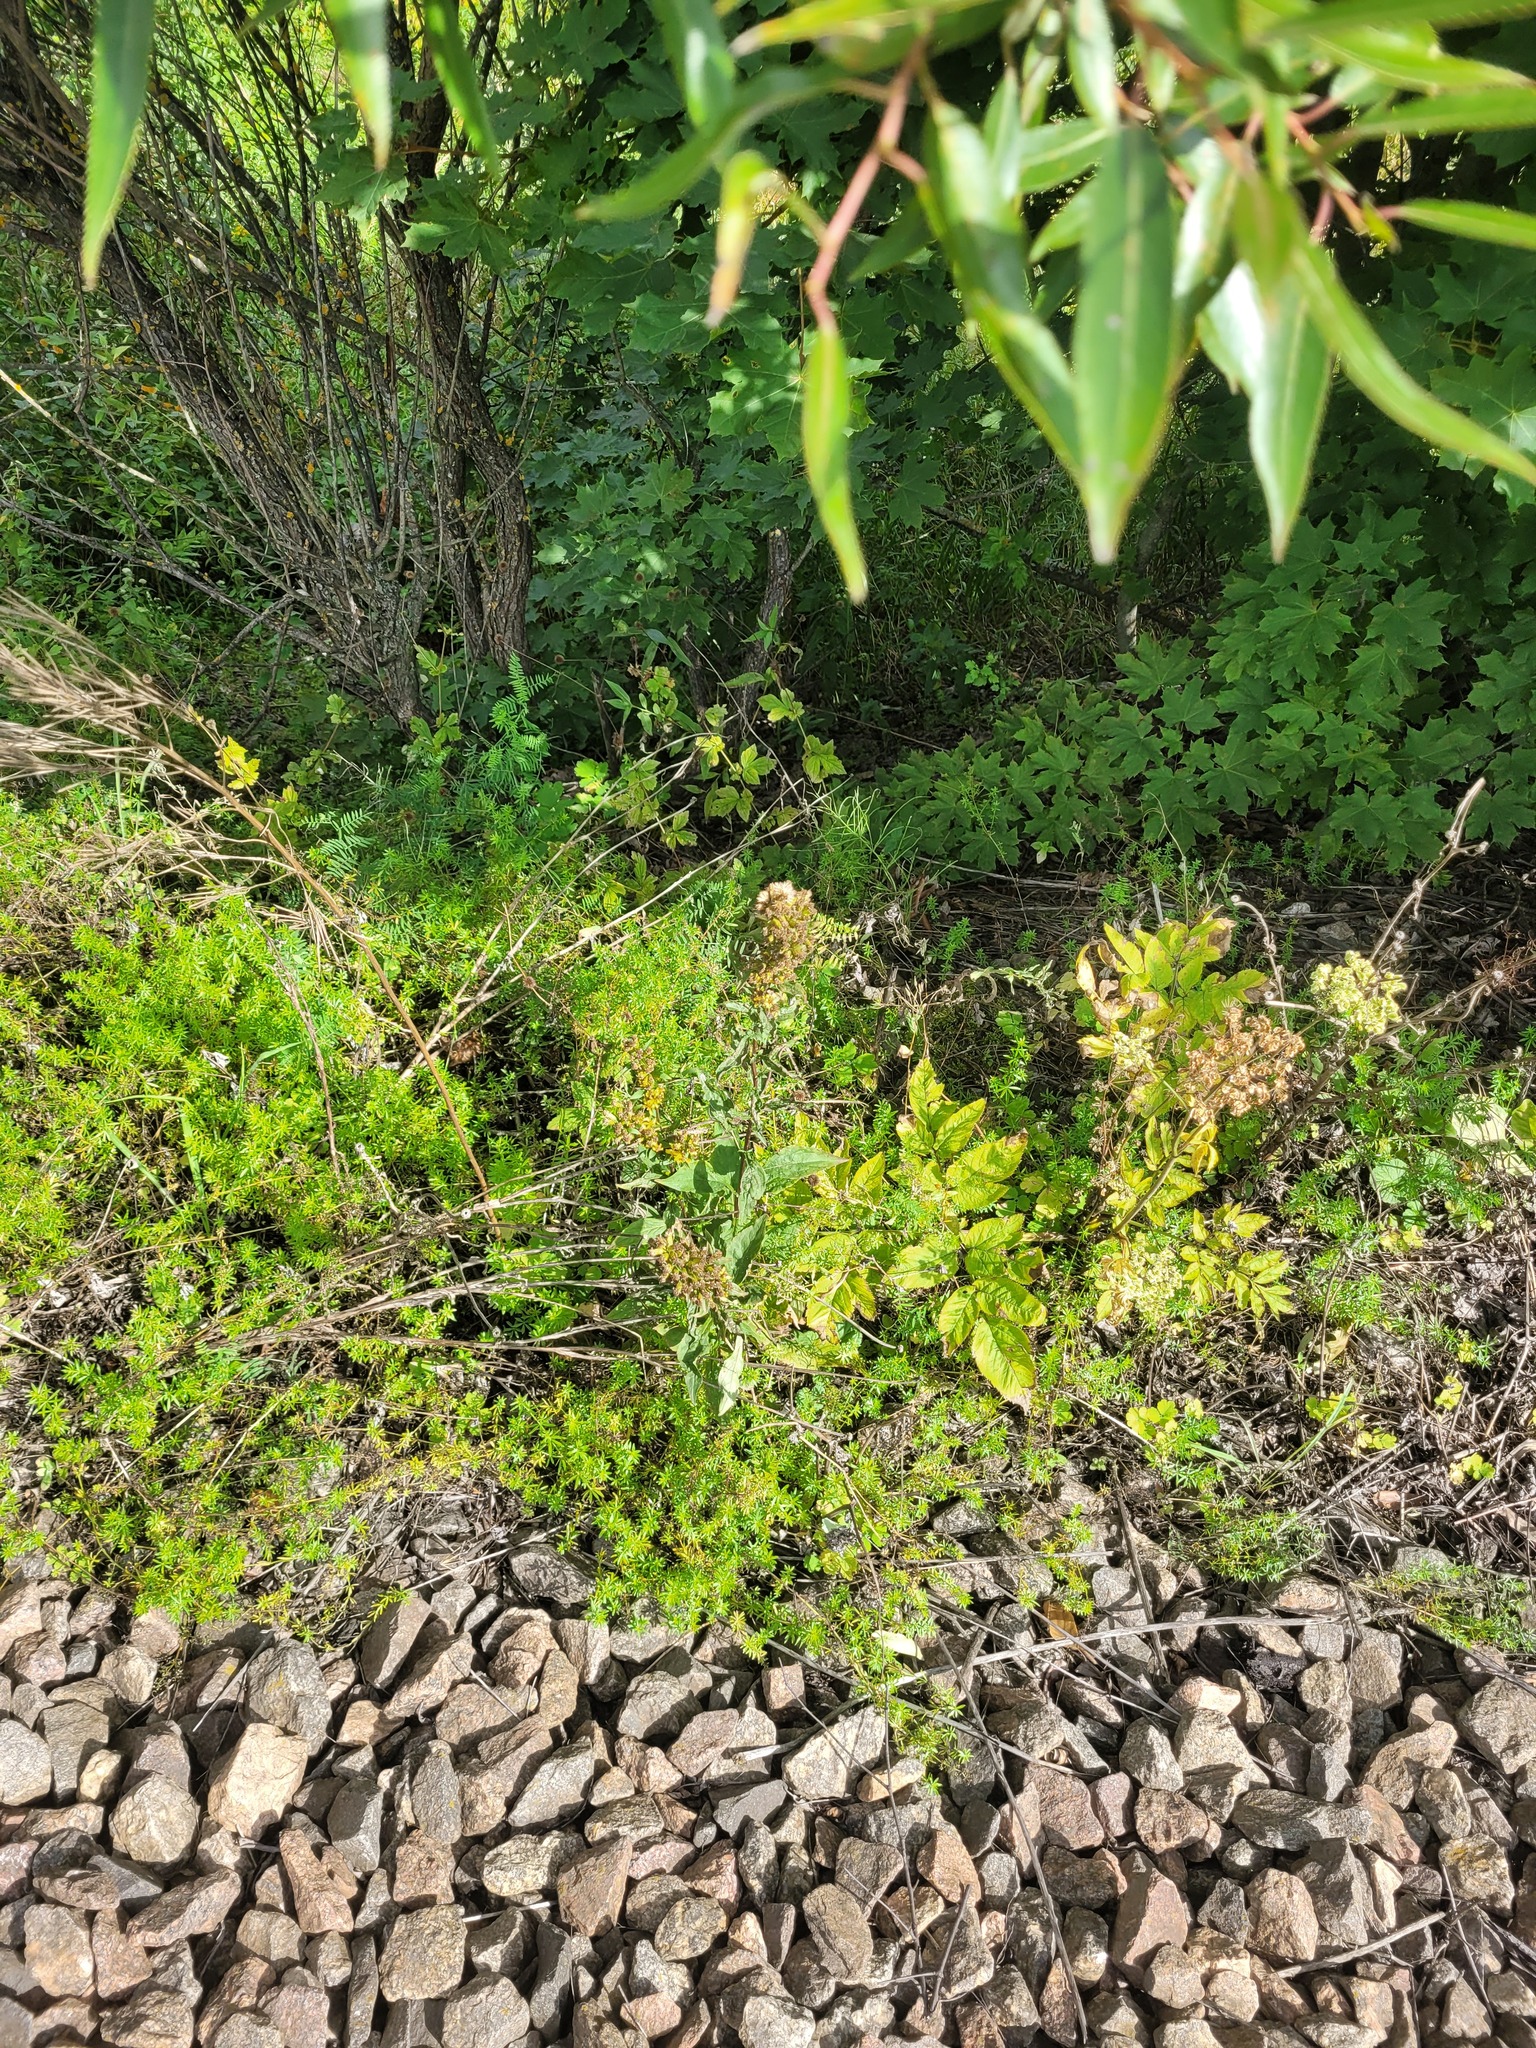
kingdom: Plantae
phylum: Tracheophyta
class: Magnoliopsida
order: Asterales
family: Asteraceae
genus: Solidago
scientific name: Solidago virgaurea
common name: Goldenrod
